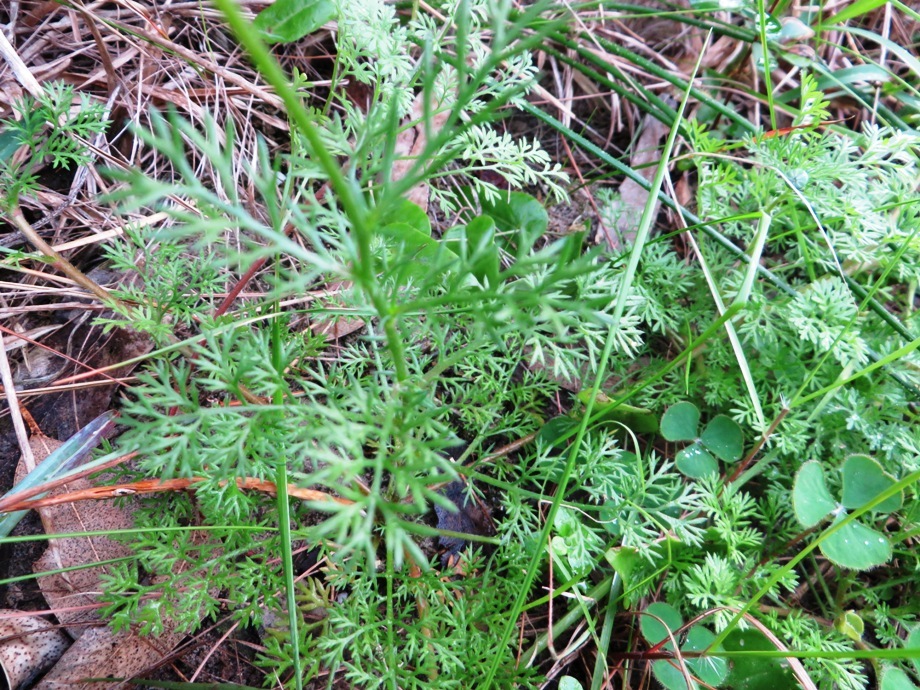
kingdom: Plantae
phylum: Tracheophyta
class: Magnoliopsida
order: Asterales
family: Asteraceae
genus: Cotula
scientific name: Cotula pruinosa
